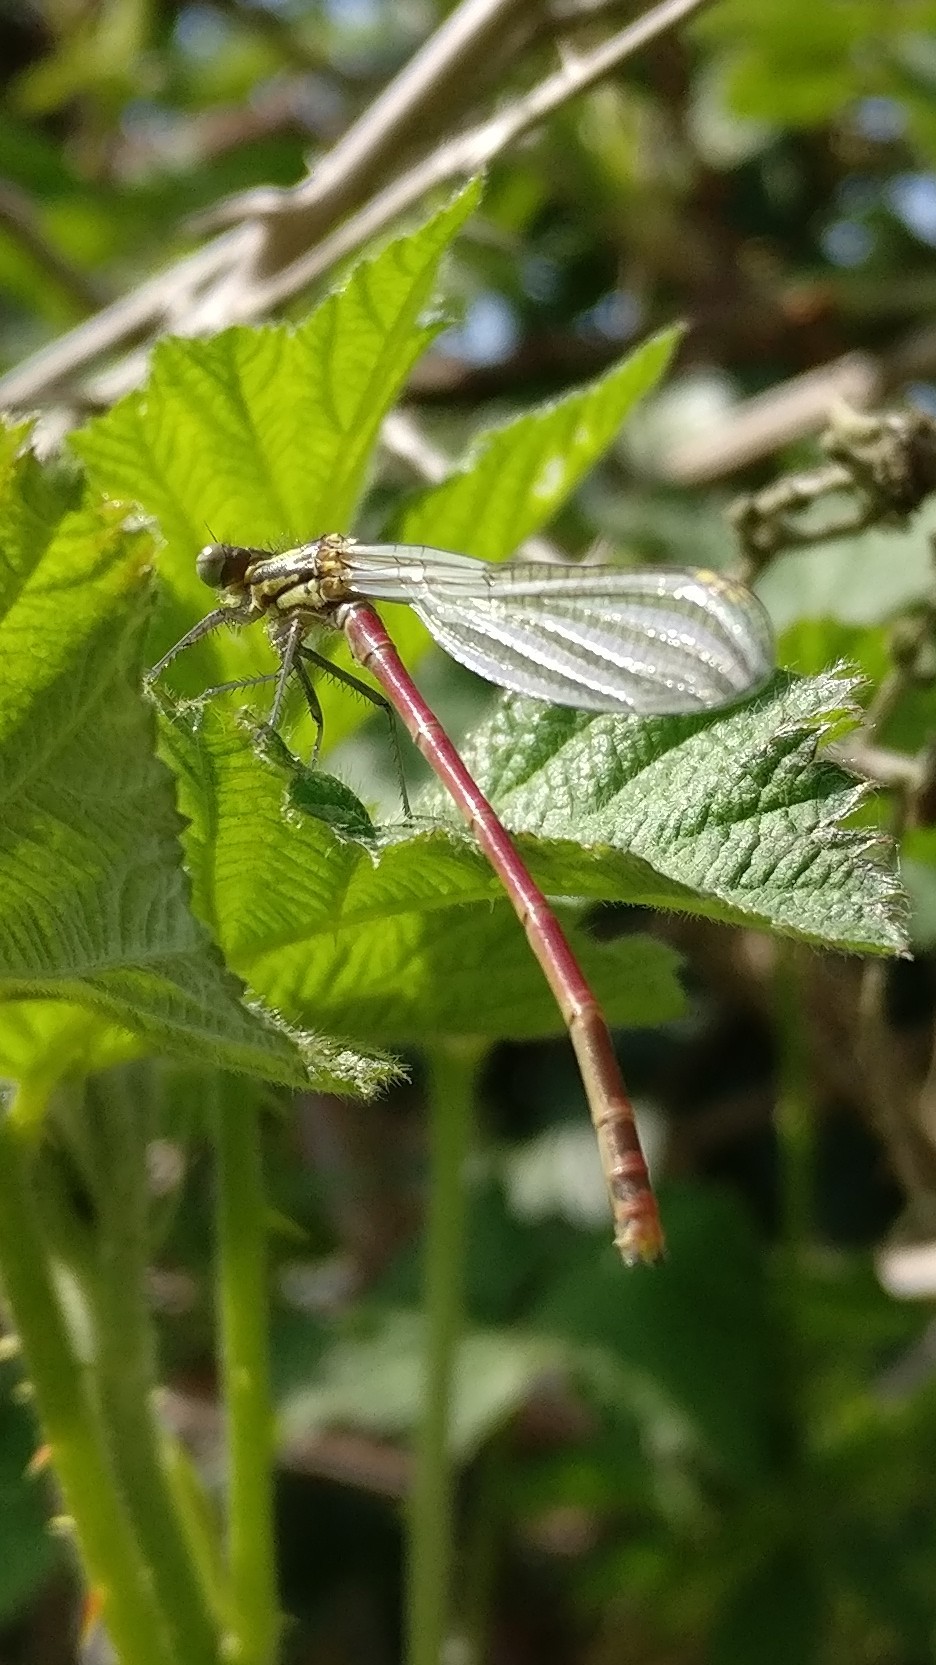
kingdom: Animalia
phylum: Arthropoda
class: Insecta
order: Odonata
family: Coenagrionidae
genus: Pyrrhosoma
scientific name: Pyrrhosoma nymphula
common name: Large red damsel
